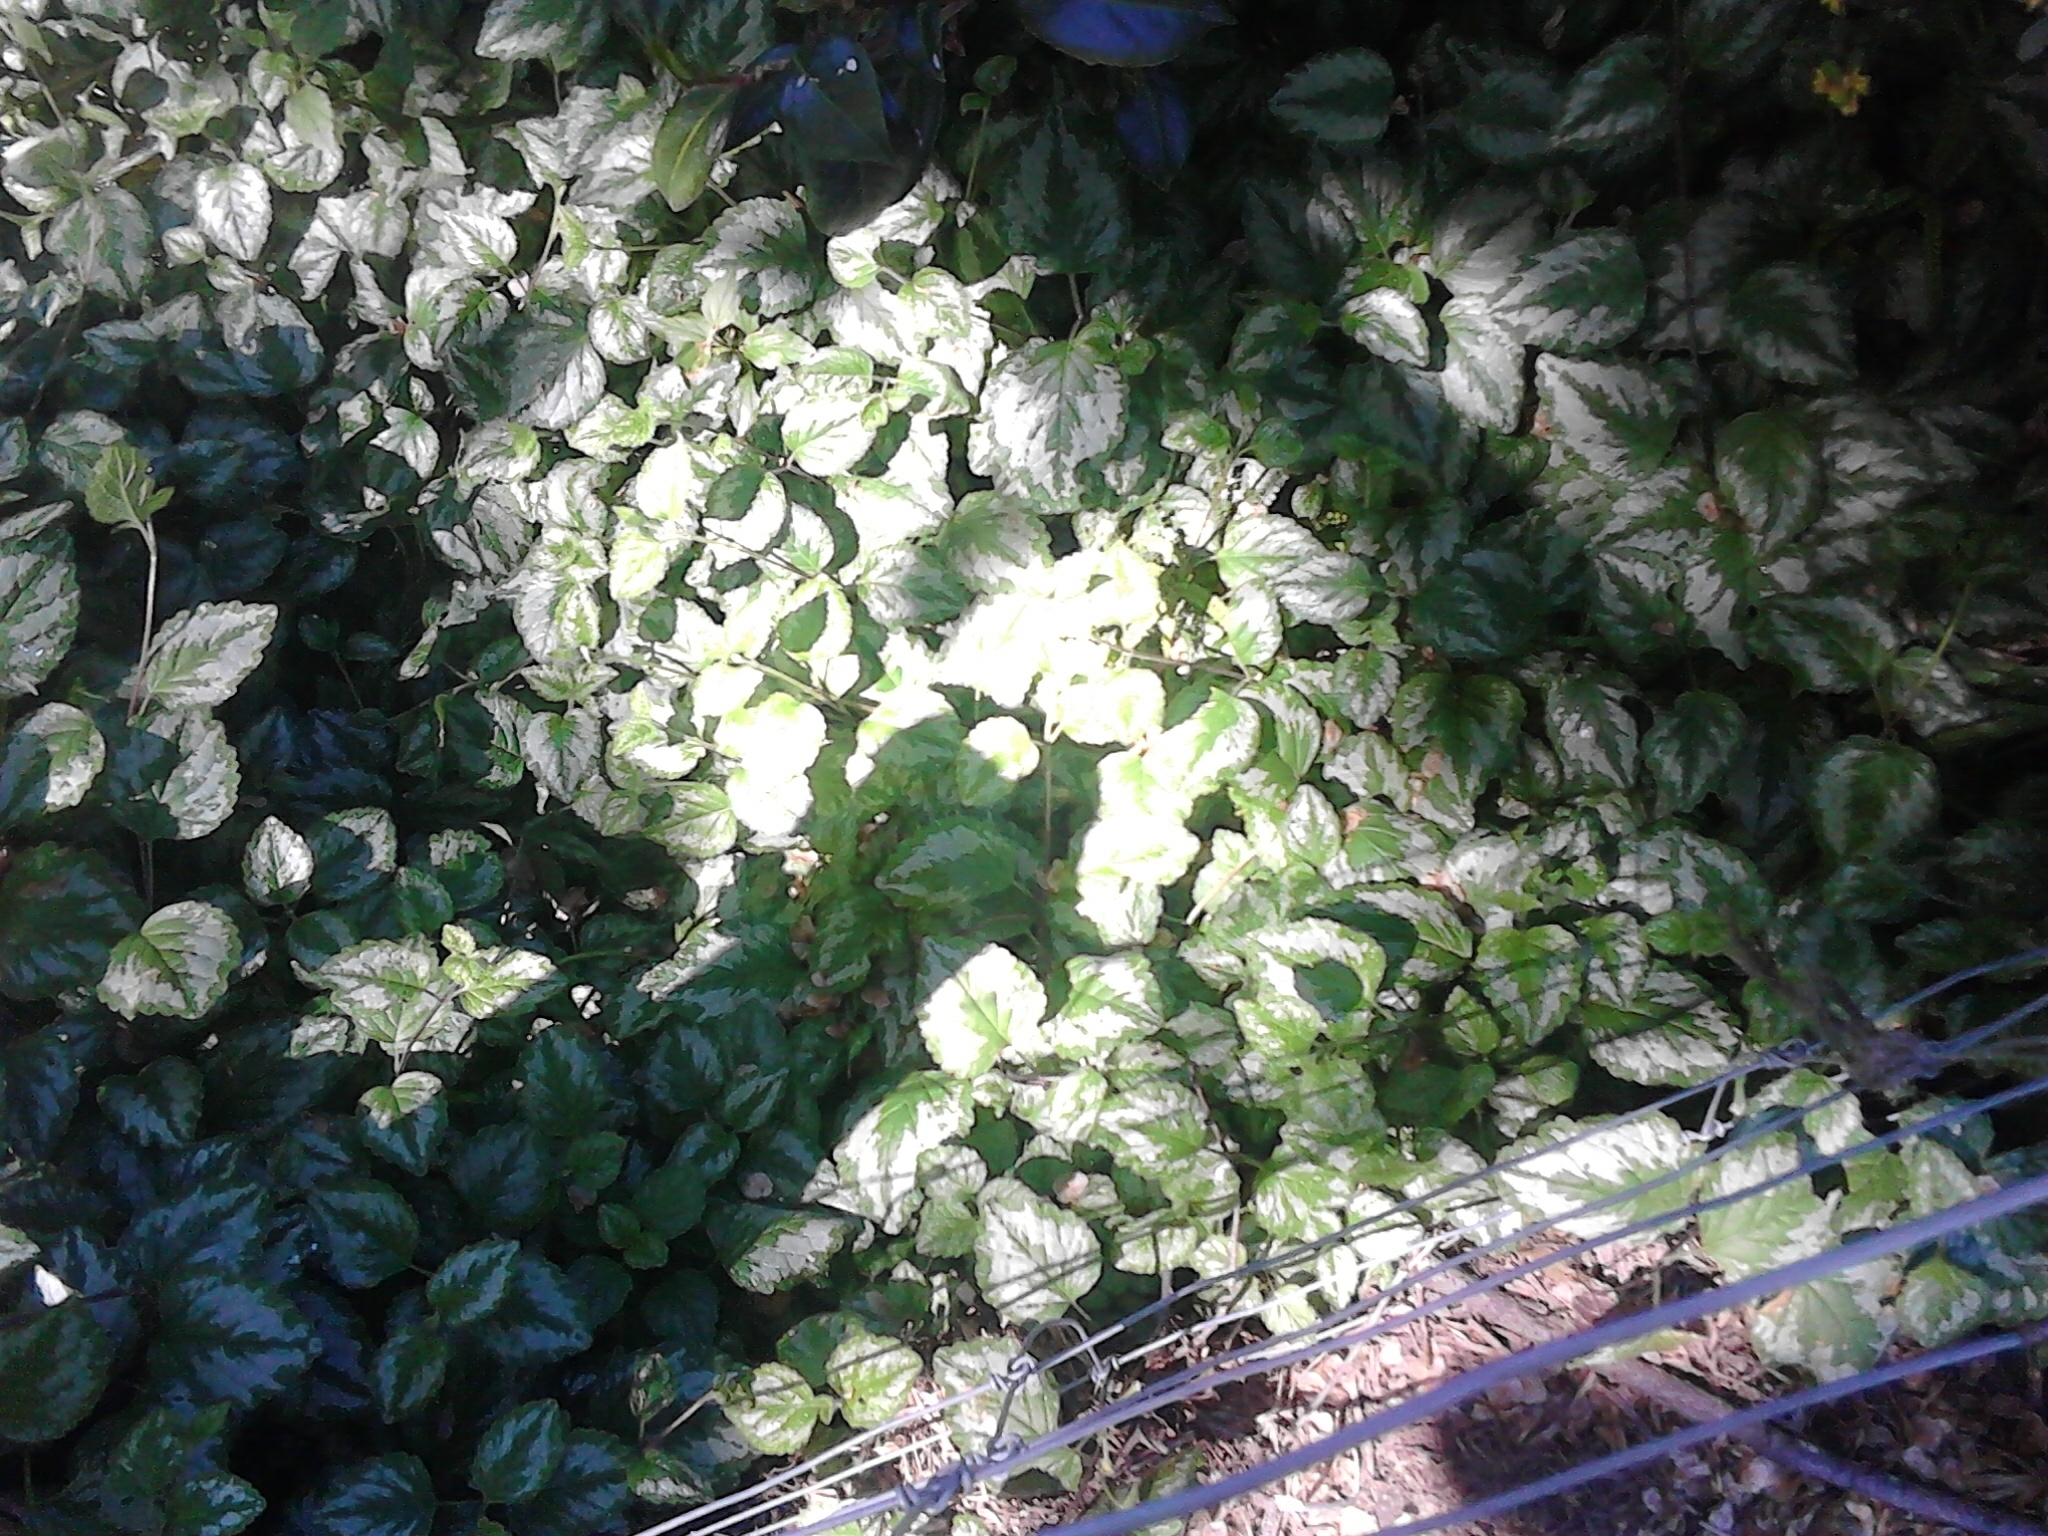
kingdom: Plantae
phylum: Tracheophyta
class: Magnoliopsida
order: Lamiales
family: Lamiaceae
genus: Lamium
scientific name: Lamium galeobdolon
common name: Yellow archangel
